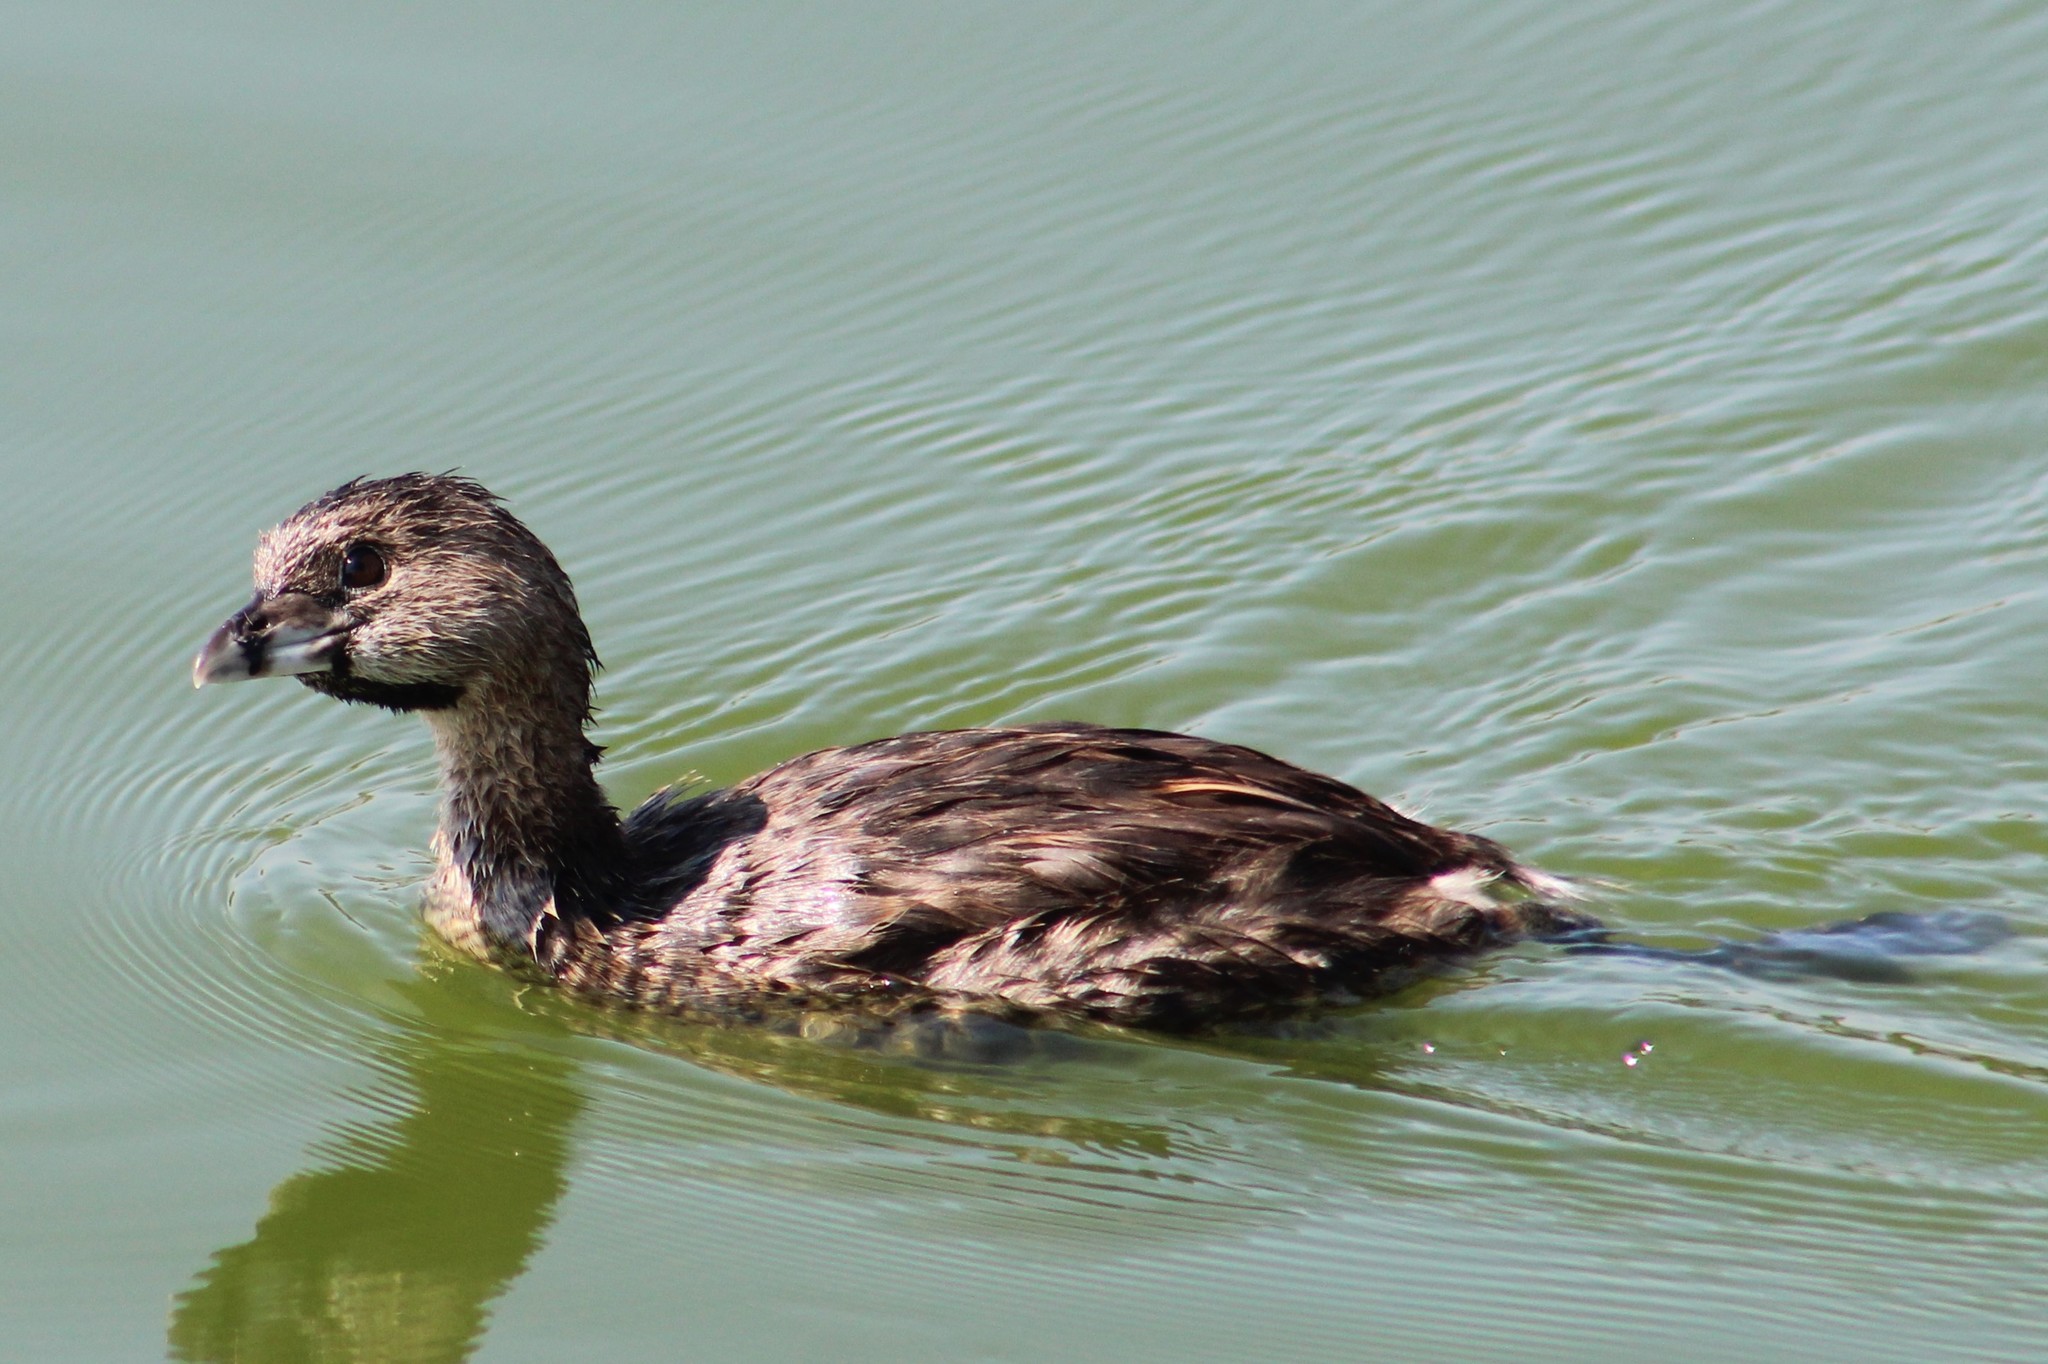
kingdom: Animalia
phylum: Chordata
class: Aves
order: Podicipediformes
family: Podicipedidae
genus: Podilymbus
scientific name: Podilymbus podiceps
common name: Pied-billed grebe
